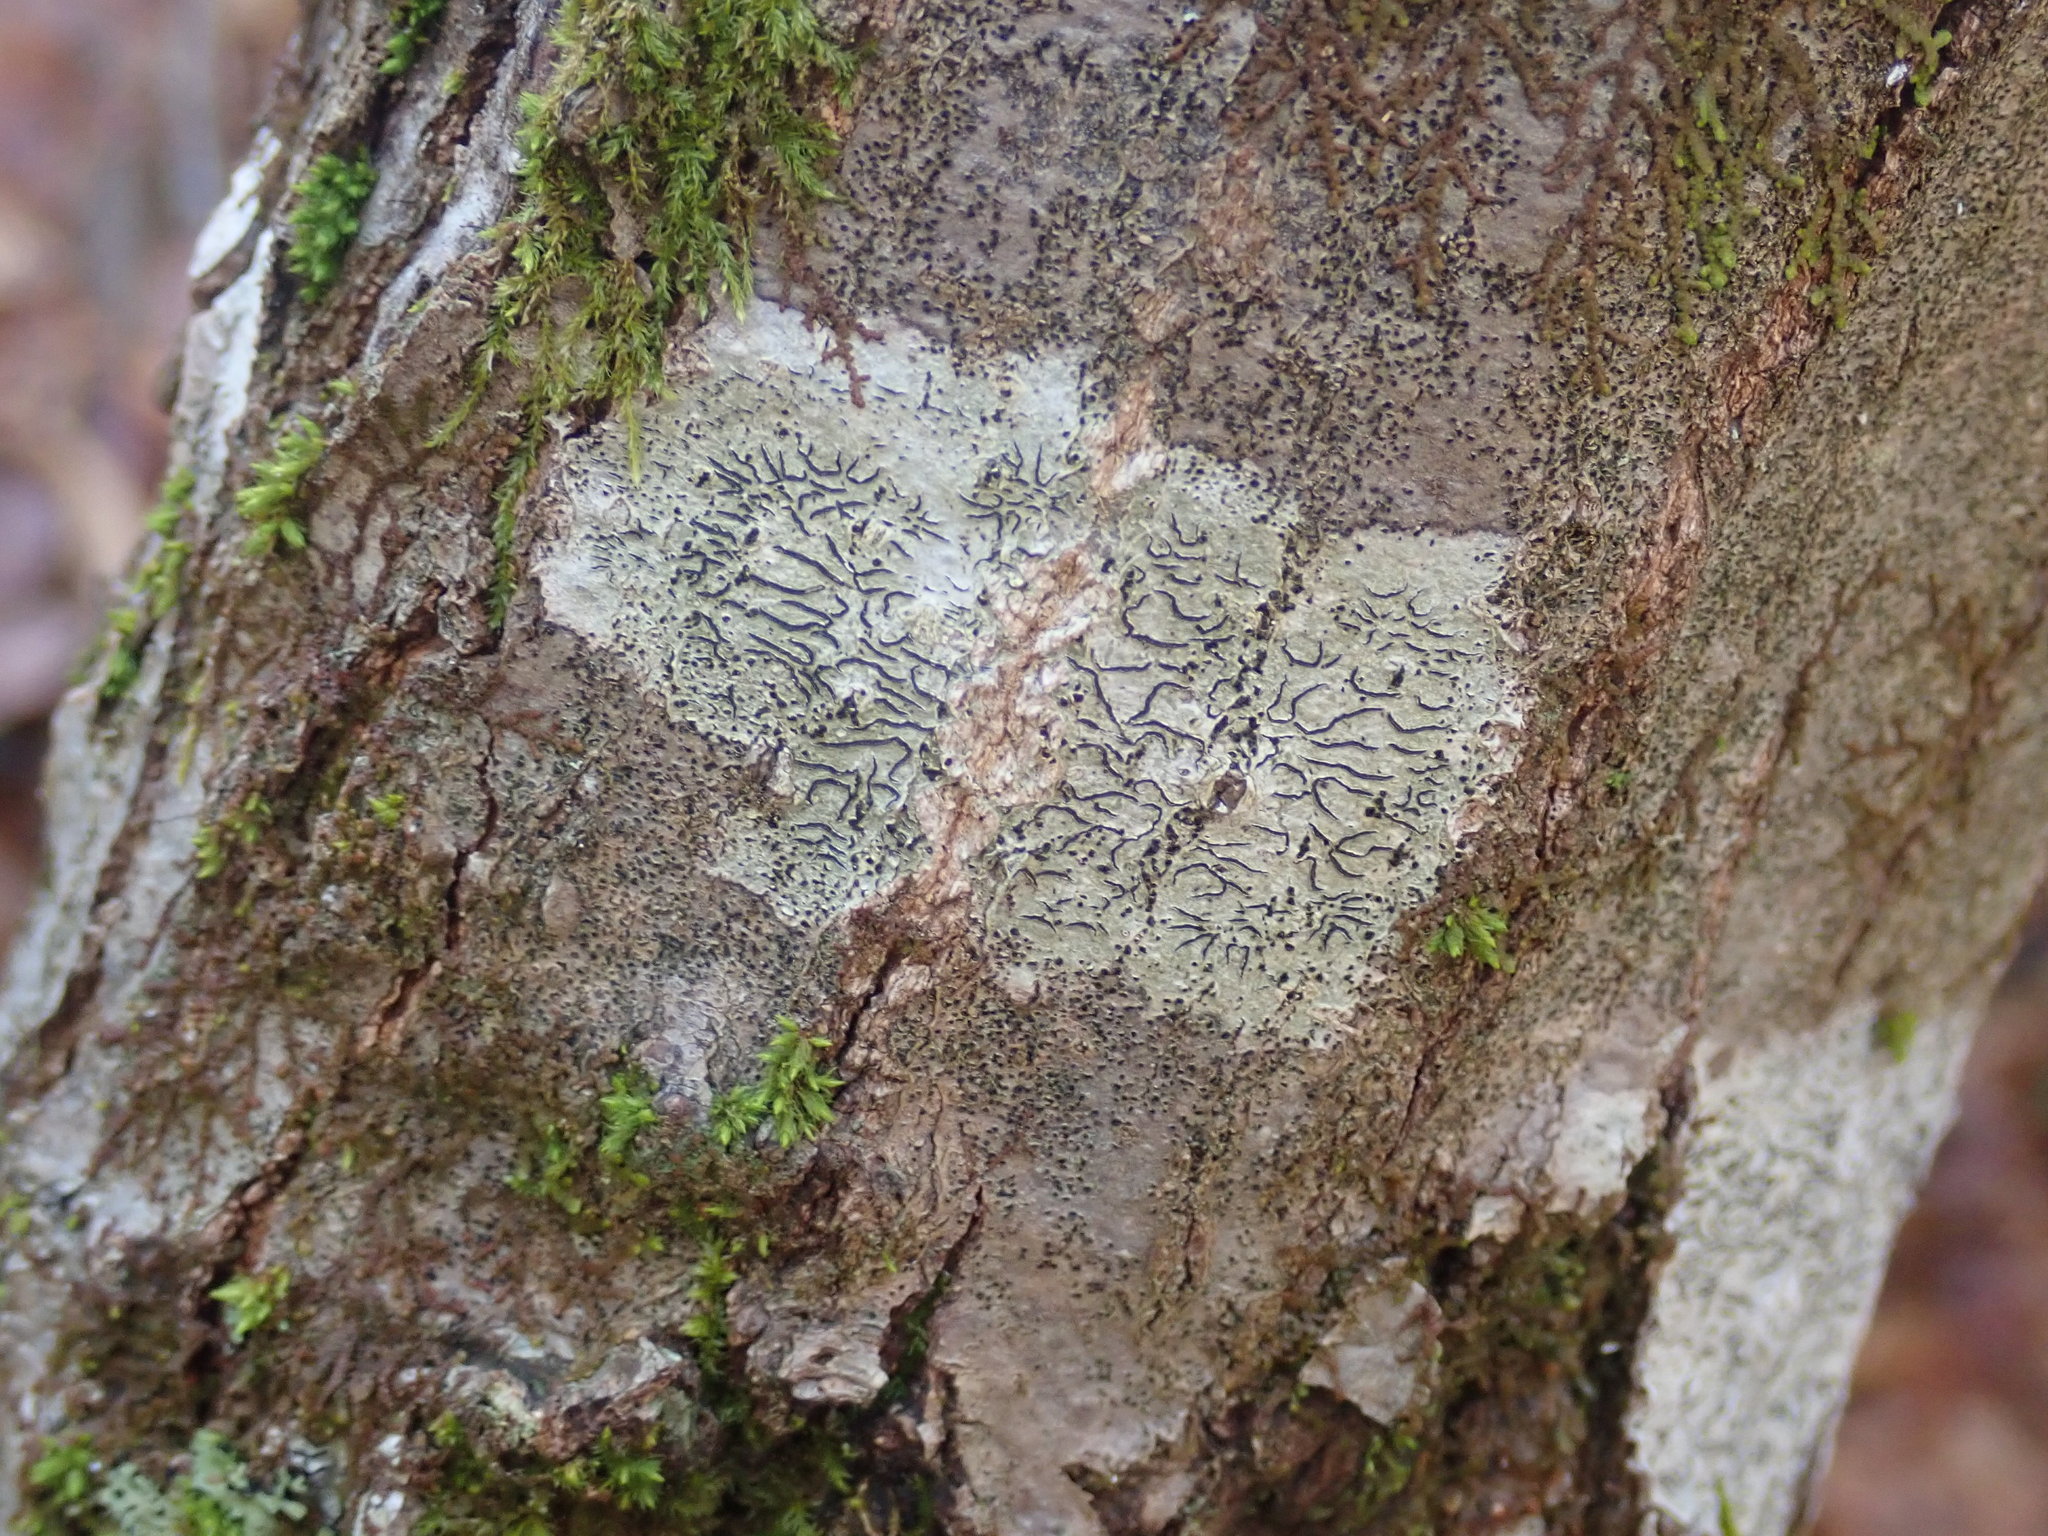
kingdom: Fungi
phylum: Ascomycota
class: Lecanoromycetes
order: Ostropales
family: Graphidaceae
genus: Graphis
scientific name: Graphis scripta
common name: Script lichen
